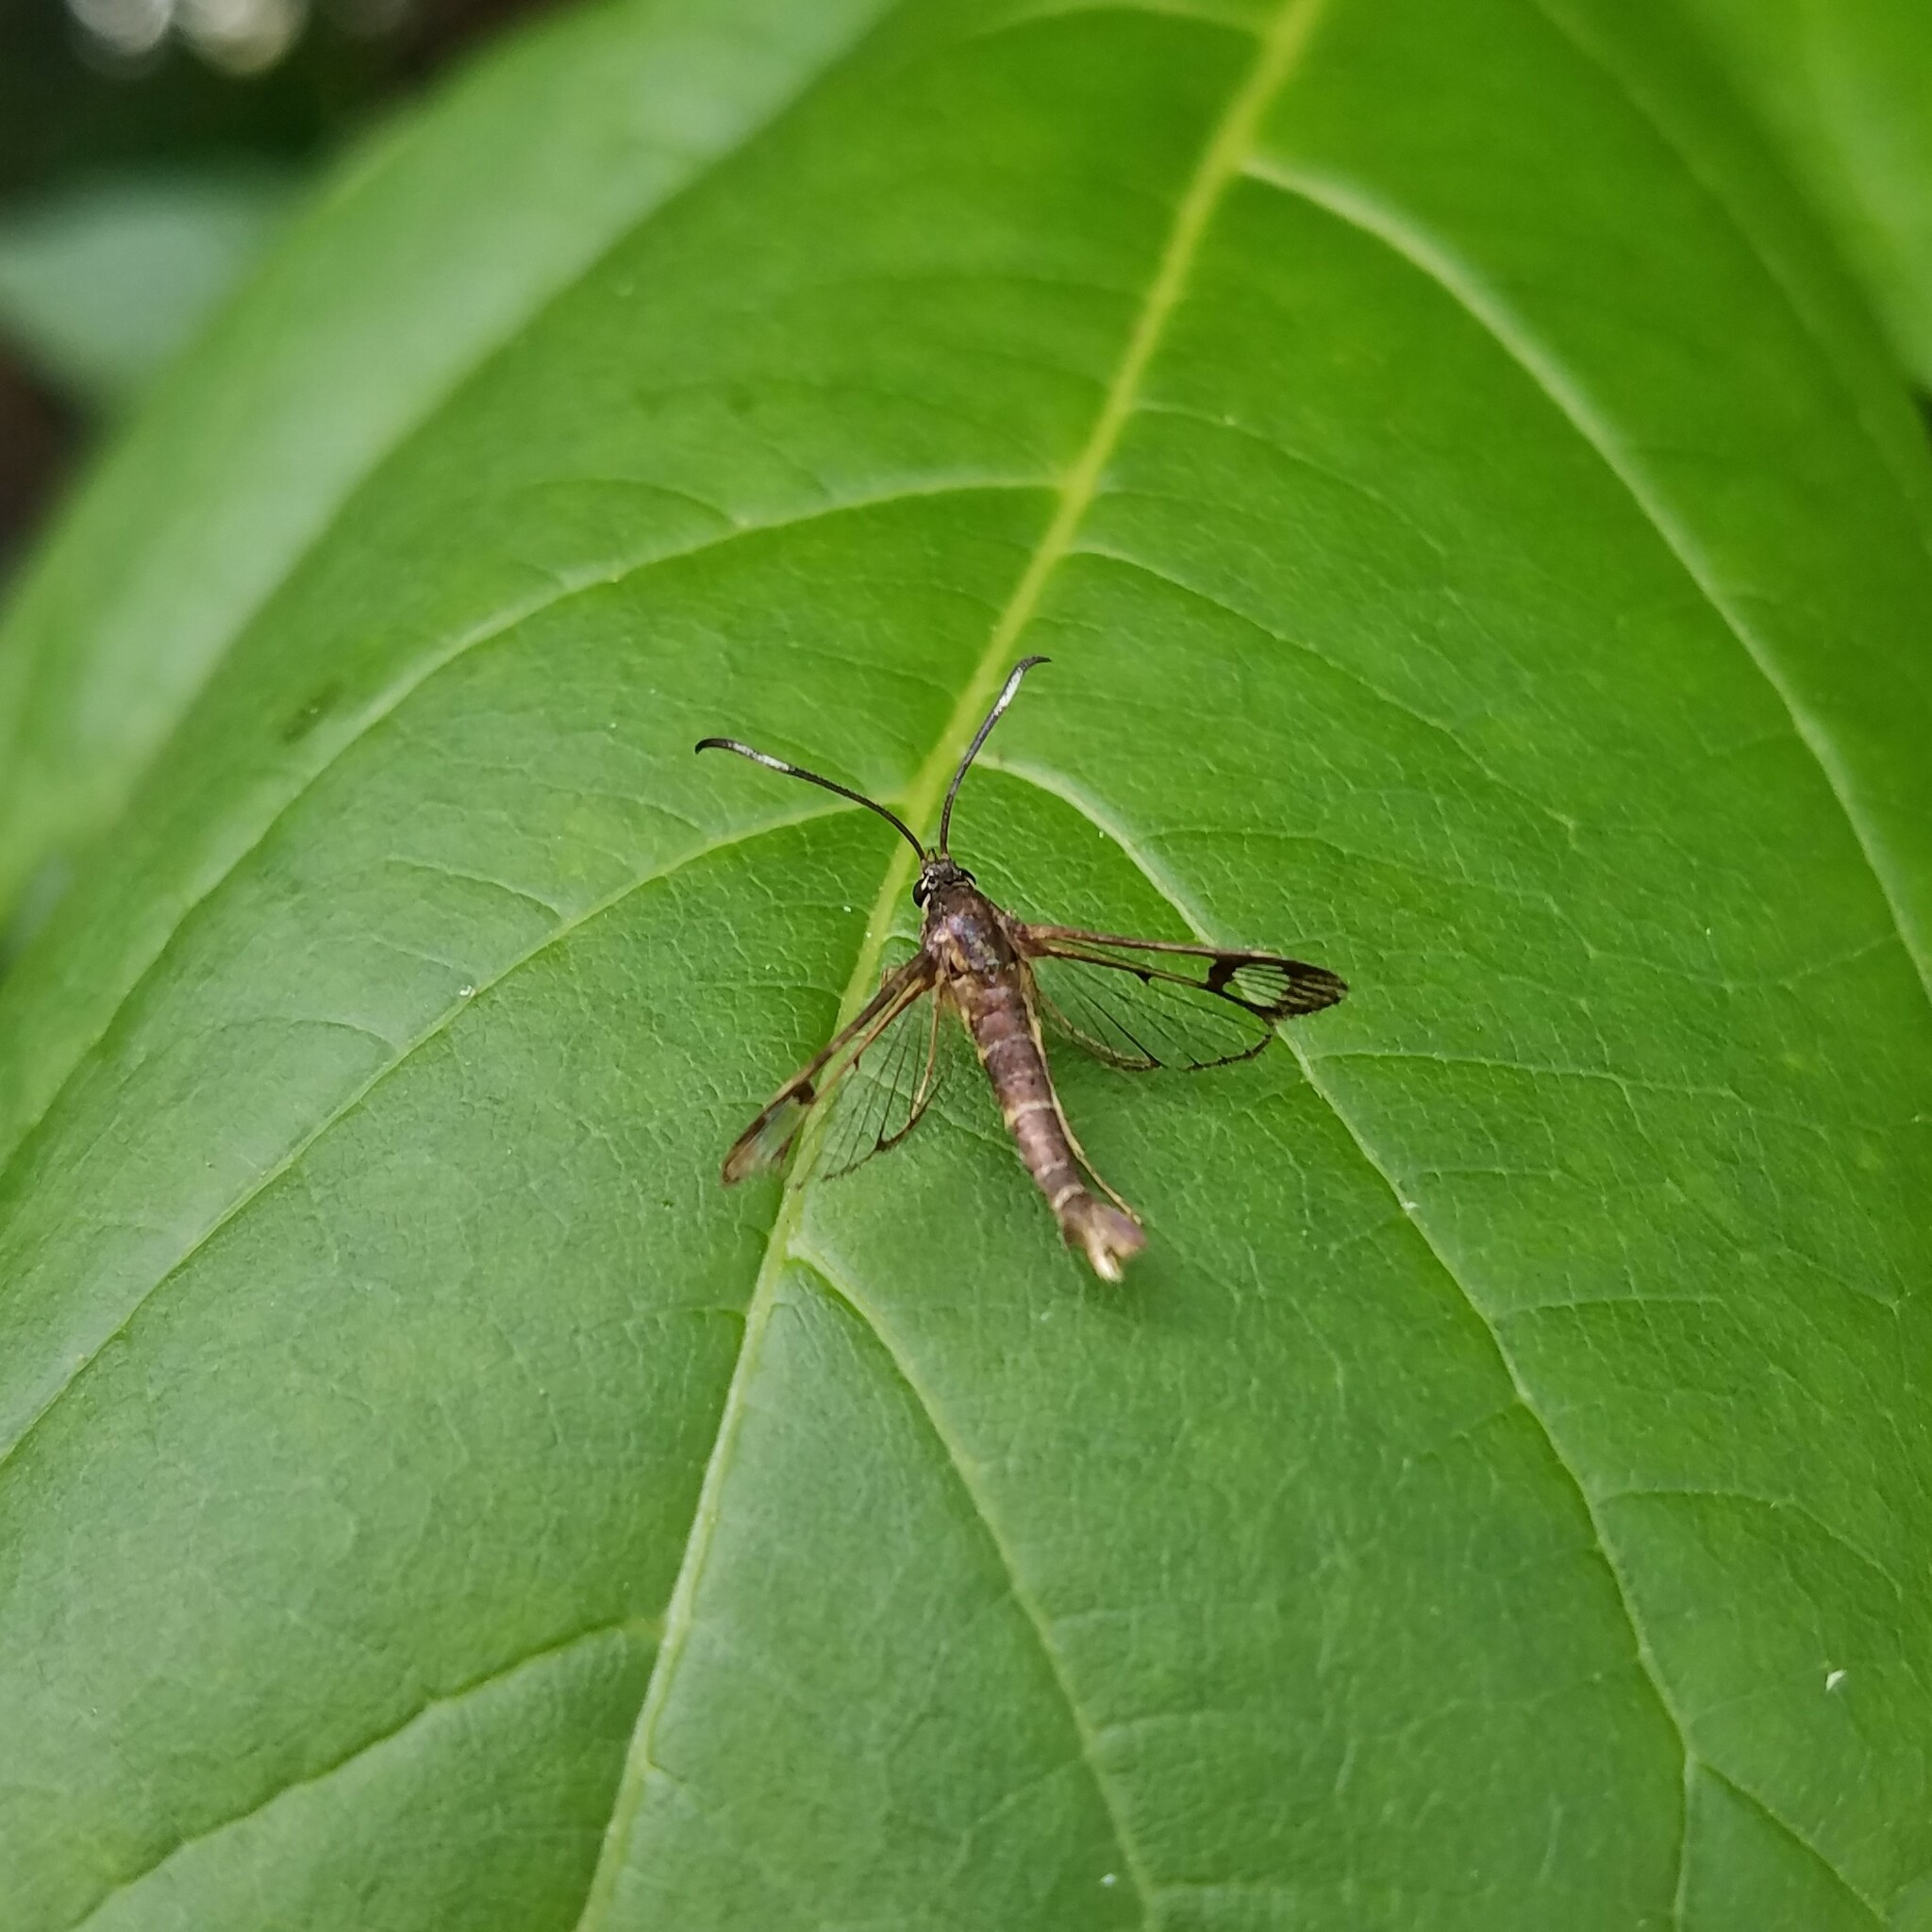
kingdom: Animalia
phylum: Arthropoda
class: Insecta
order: Lepidoptera
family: Sesiidae
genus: Carmenta
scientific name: Carmenta ithacae
